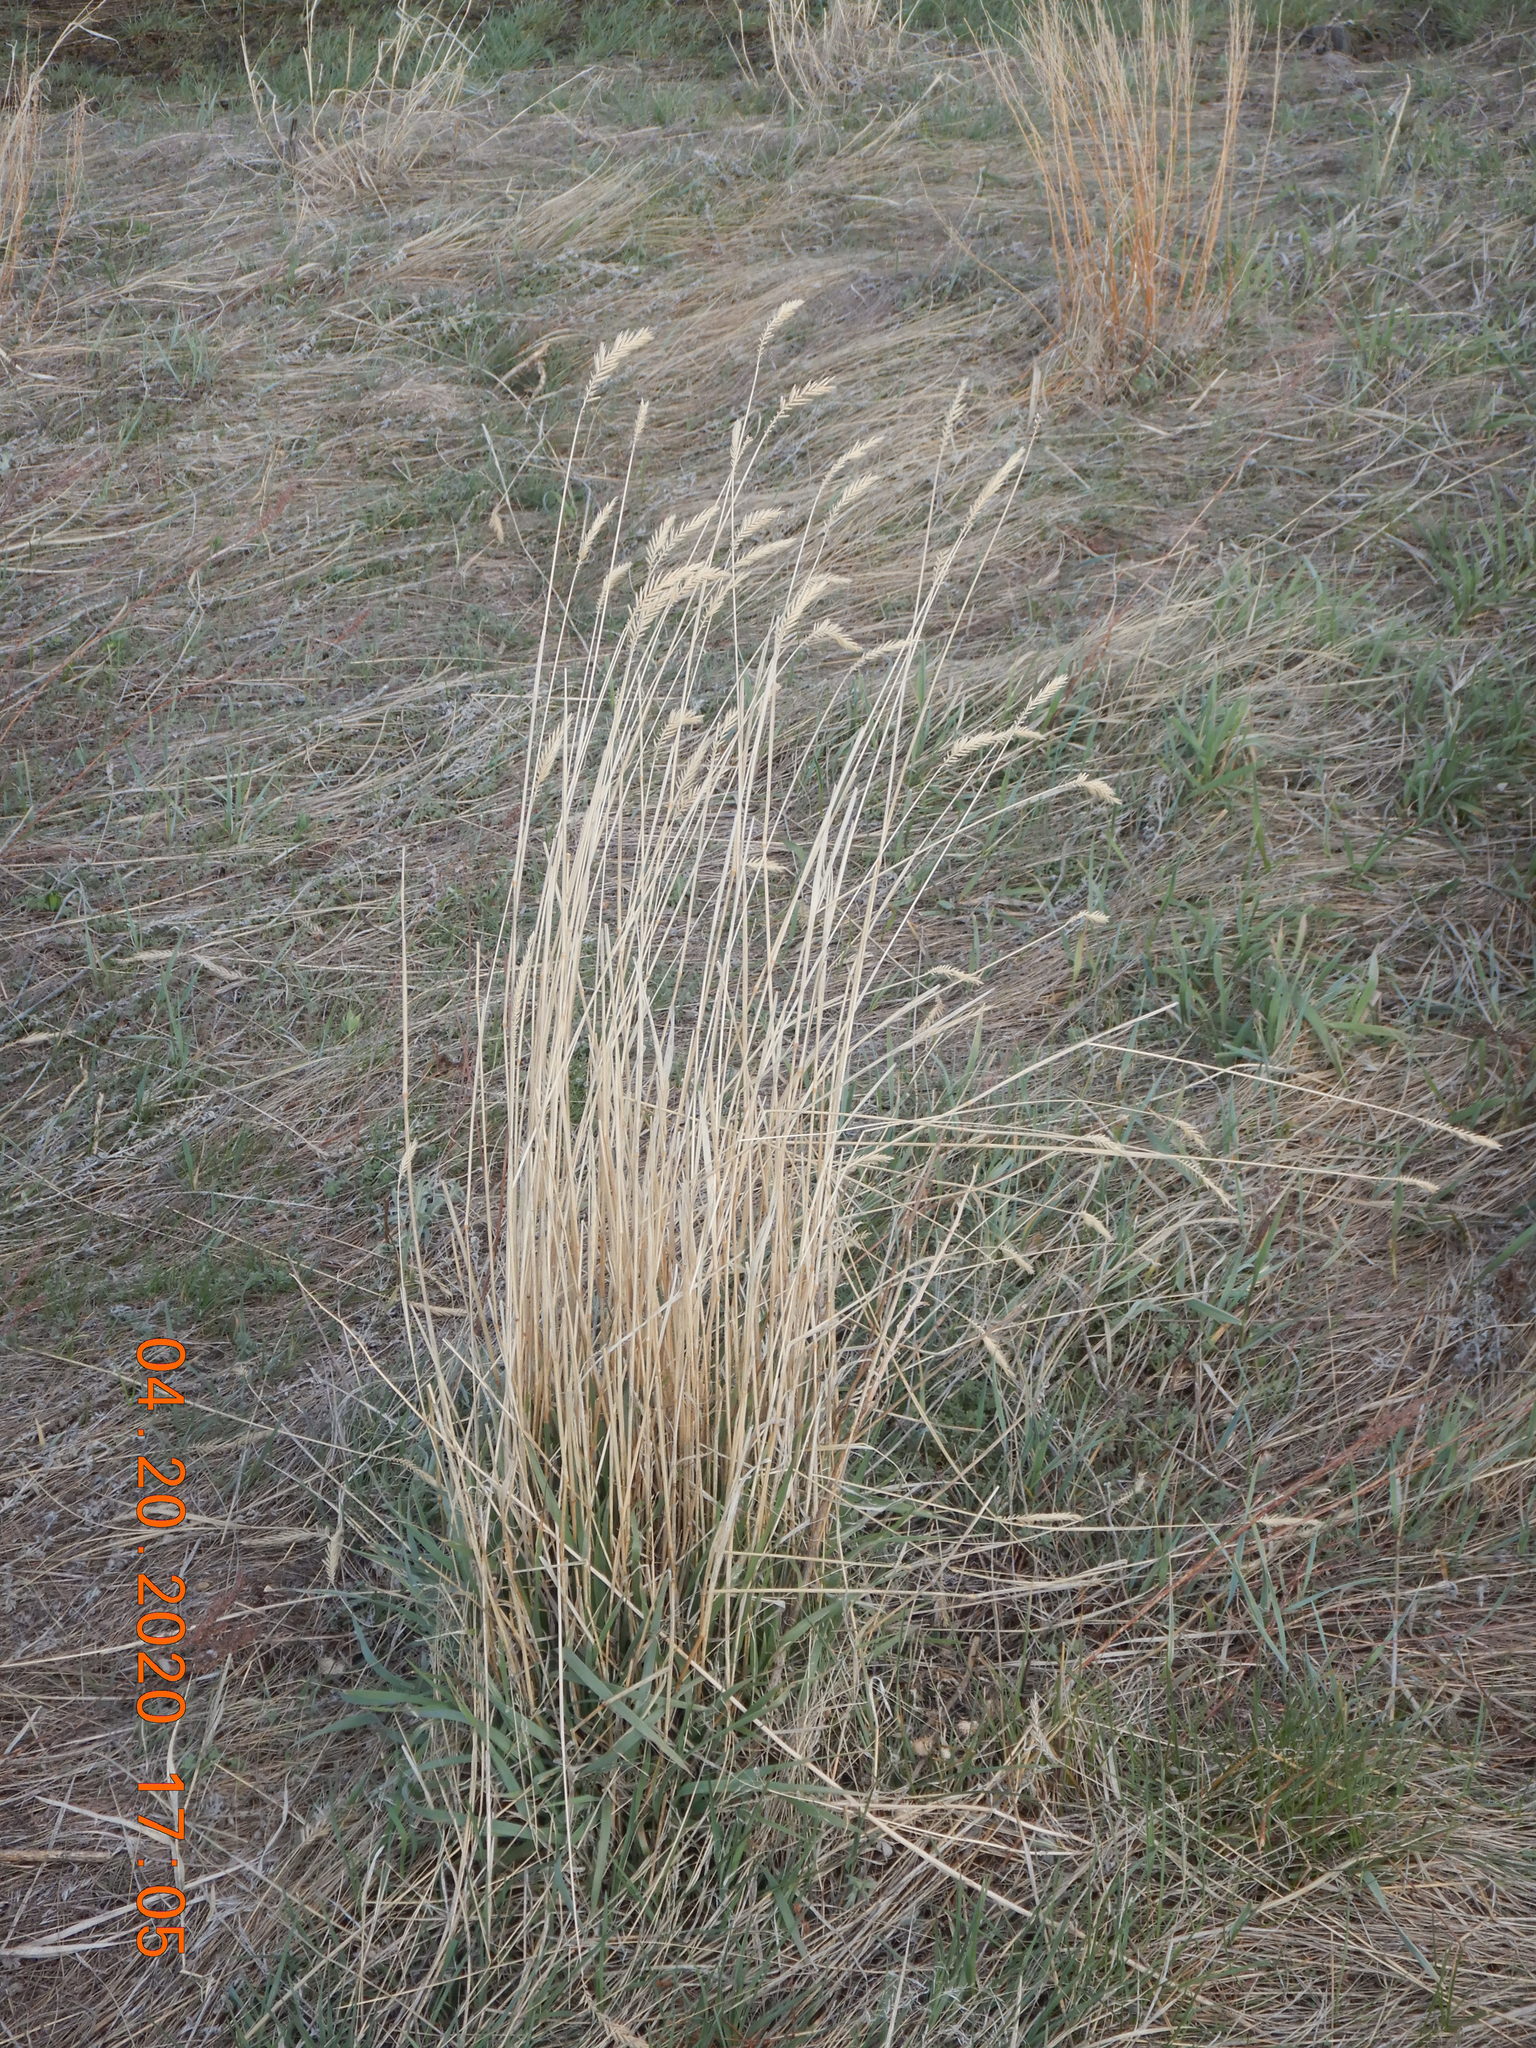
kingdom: Plantae
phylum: Tracheophyta
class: Liliopsida
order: Poales
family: Poaceae
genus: Agropyron
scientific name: Agropyron cristatum
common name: Crested wheatgrass
